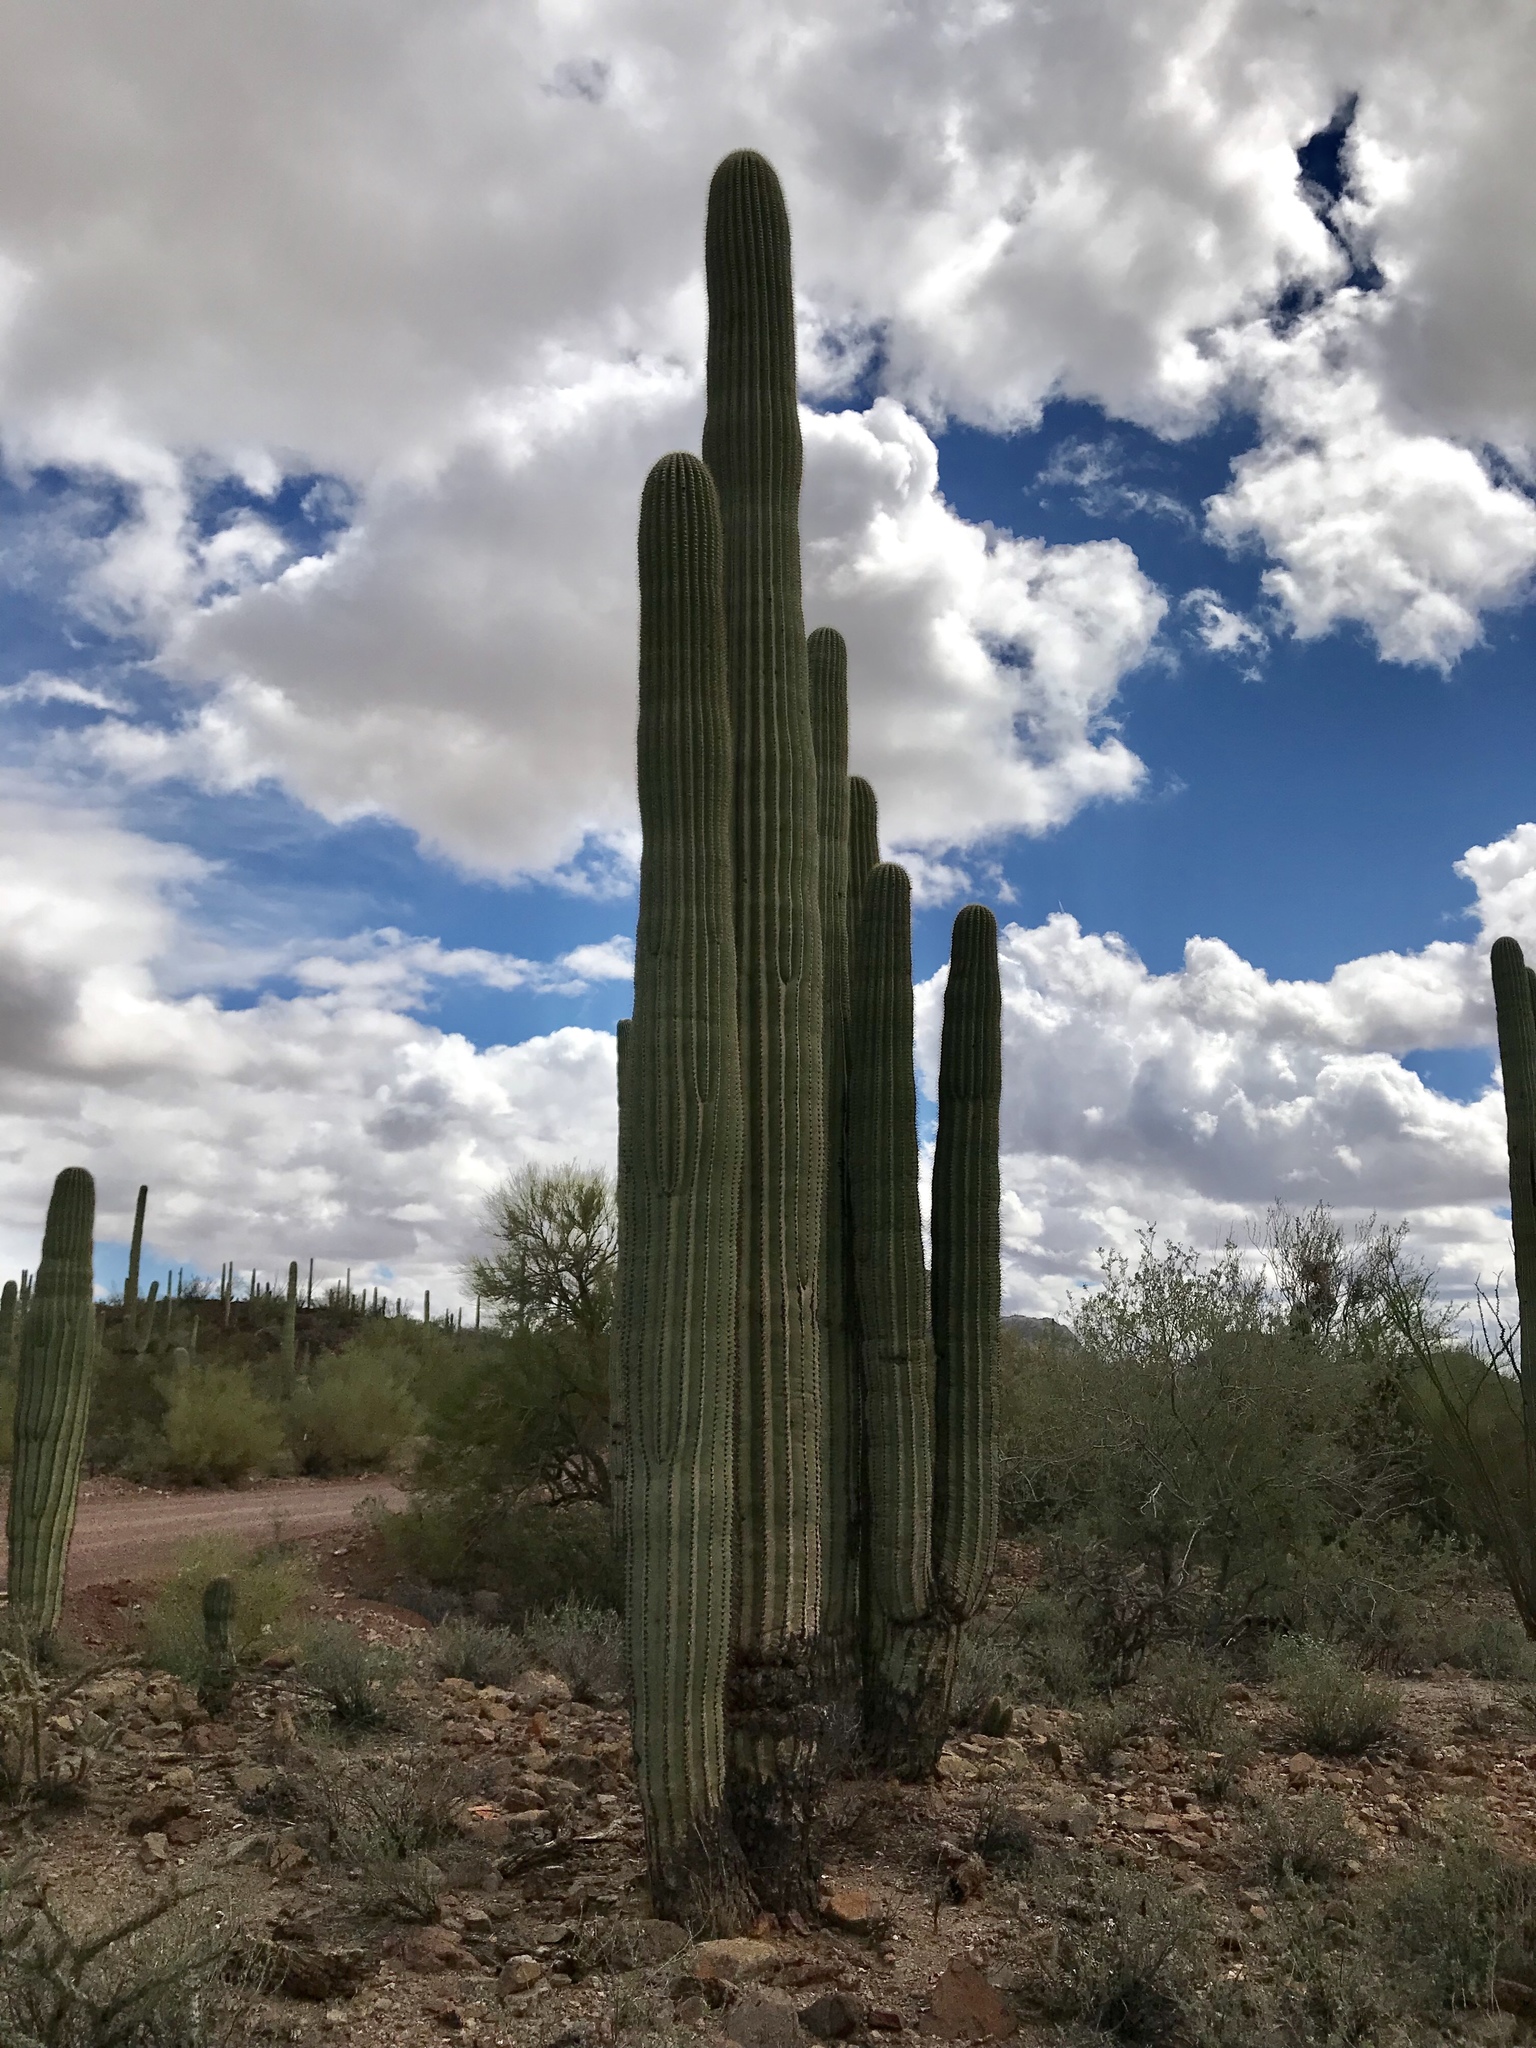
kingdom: Plantae
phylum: Tracheophyta
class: Magnoliopsida
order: Caryophyllales
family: Cactaceae
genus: Carnegiea
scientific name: Carnegiea gigantea
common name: Saguaro
